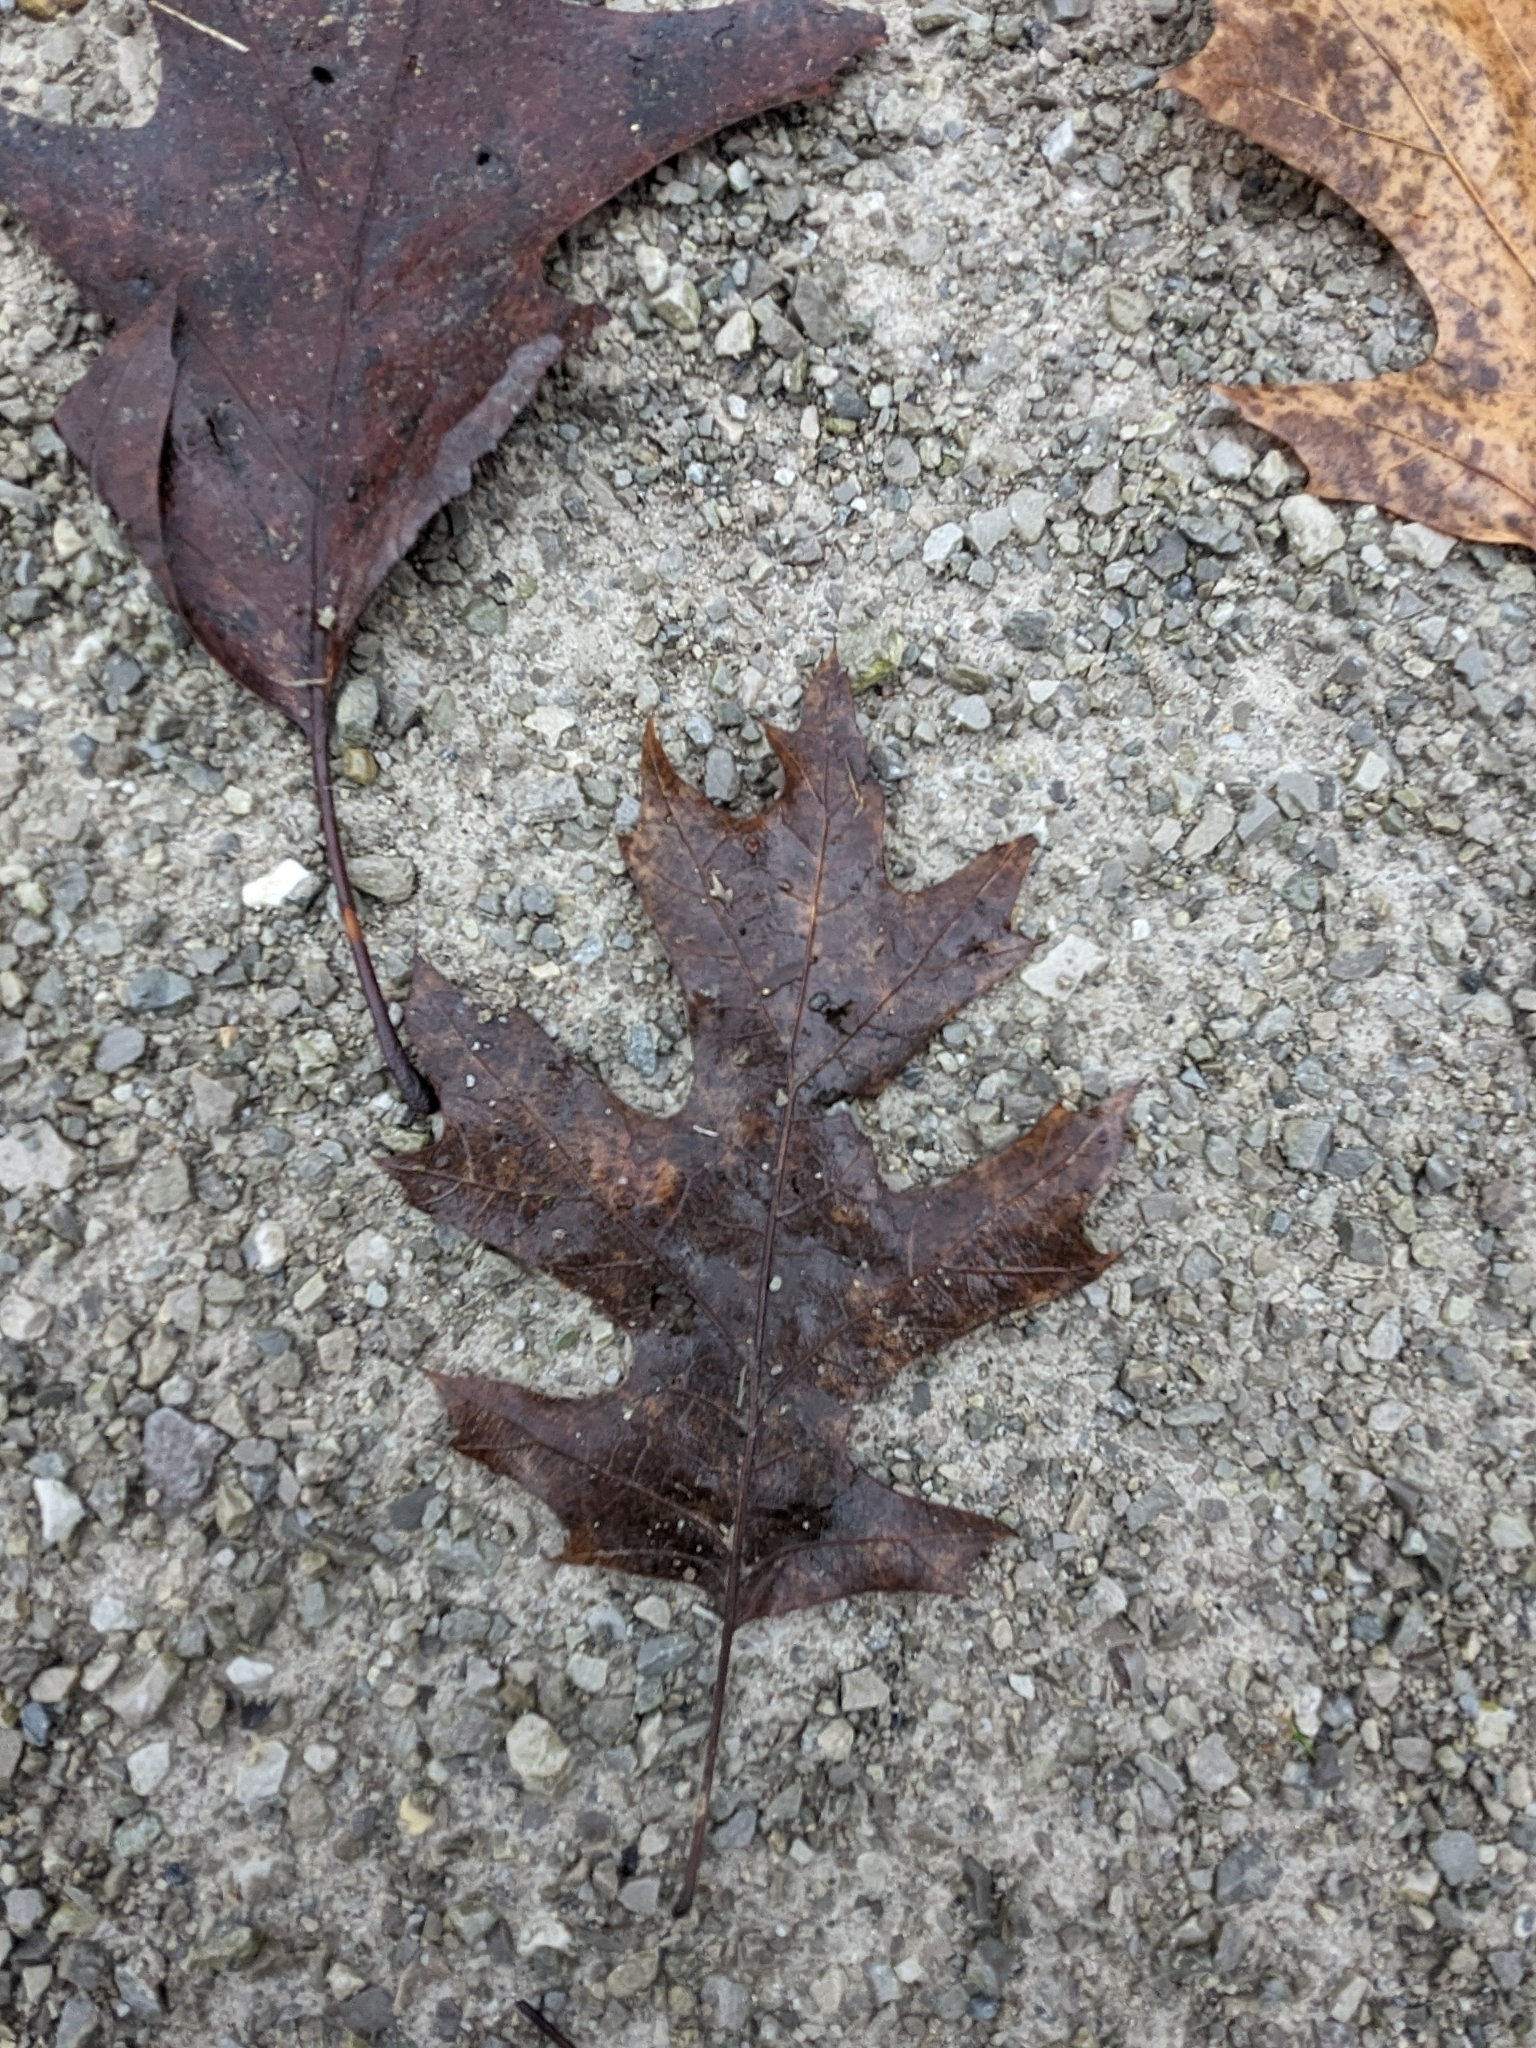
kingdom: Plantae
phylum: Tracheophyta
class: Magnoliopsida
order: Fagales
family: Fagaceae
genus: Quercus
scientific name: Quercus rubra
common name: Red oak
